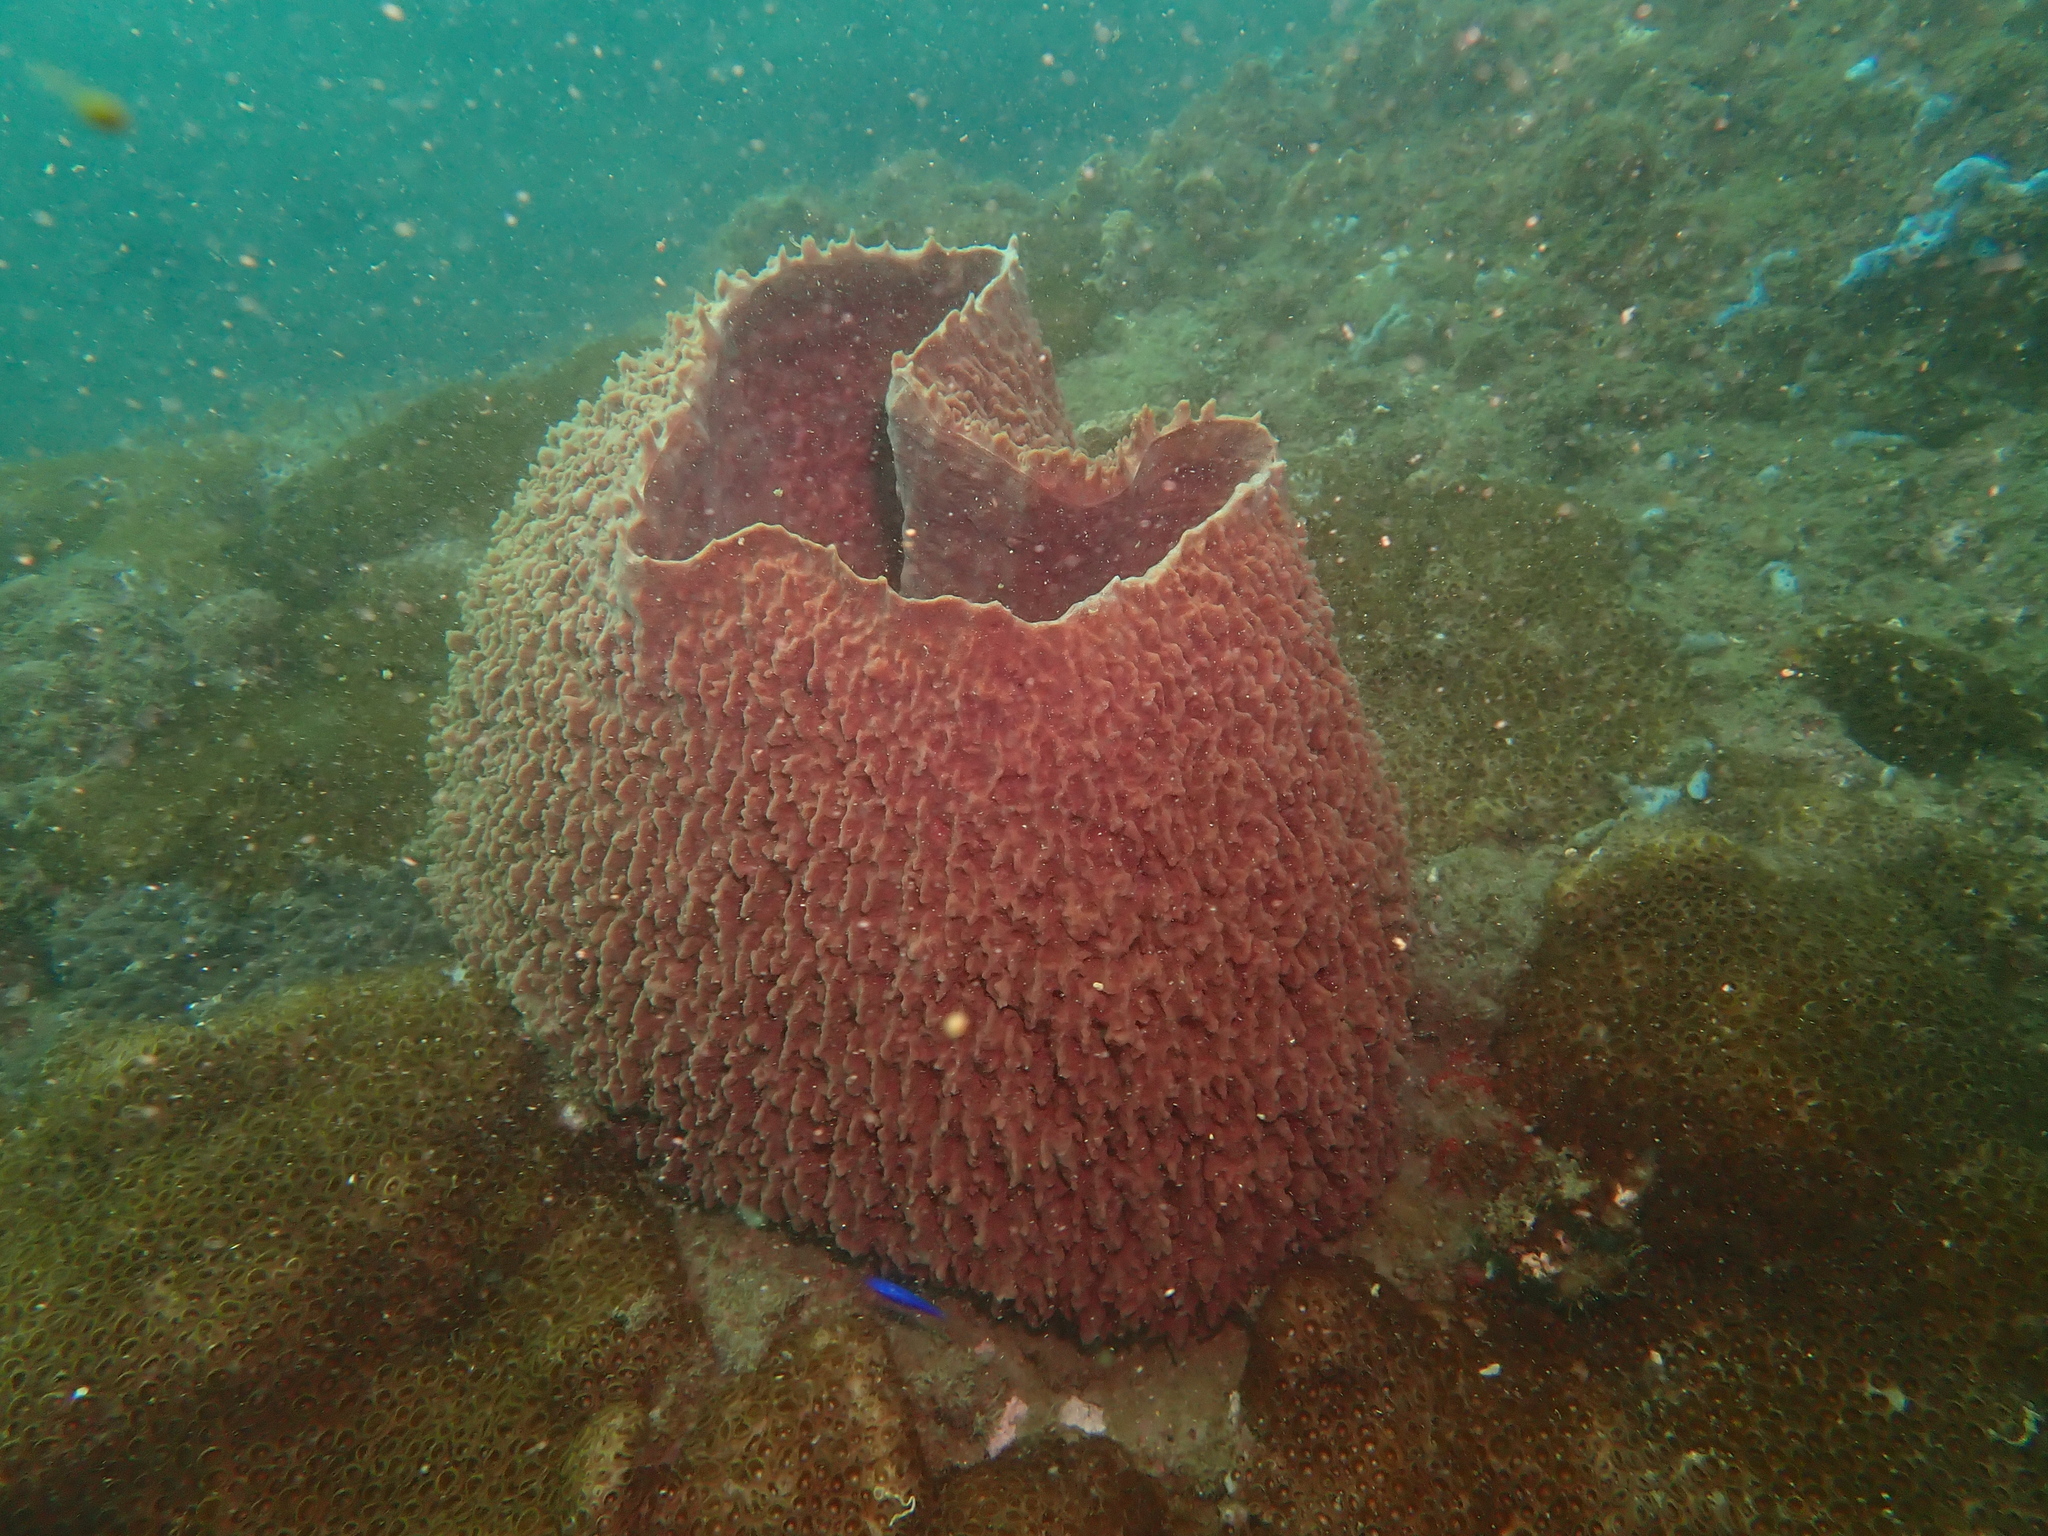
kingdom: Animalia
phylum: Porifera
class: Demospongiae
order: Haplosclerida
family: Petrosiidae
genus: Xestospongia
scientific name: Xestospongia testudinaria
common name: Barrel sponge
